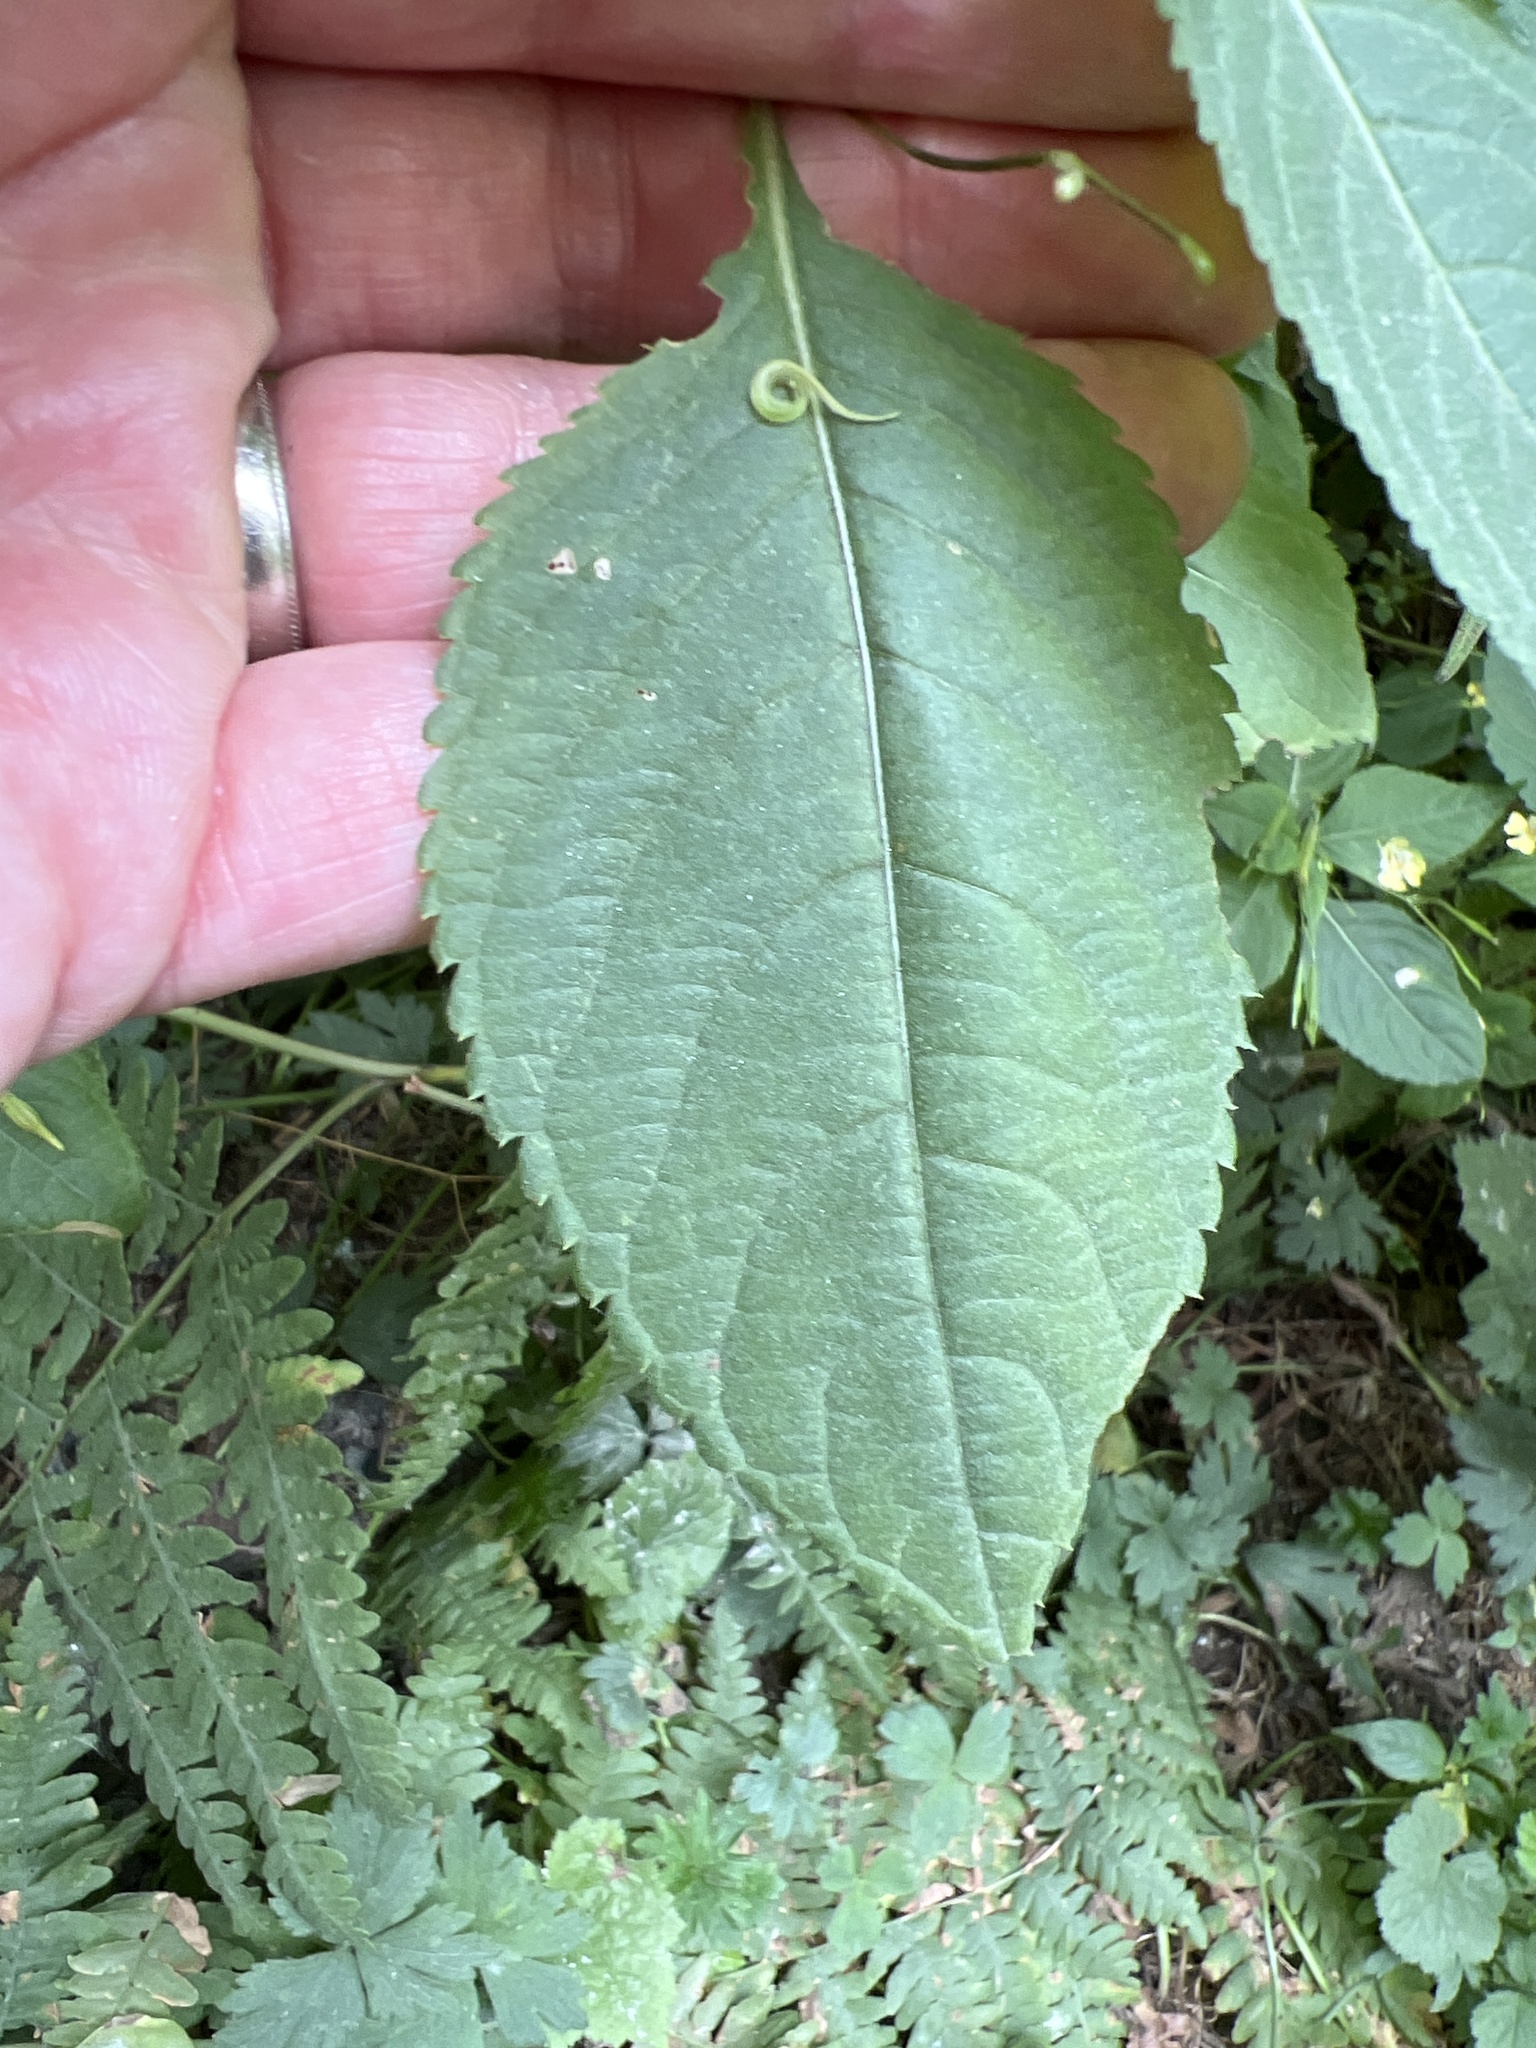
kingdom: Plantae
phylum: Tracheophyta
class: Magnoliopsida
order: Ericales
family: Balsaminaceae
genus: Impatiens
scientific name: Impatiens parviflora
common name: Small balsam
